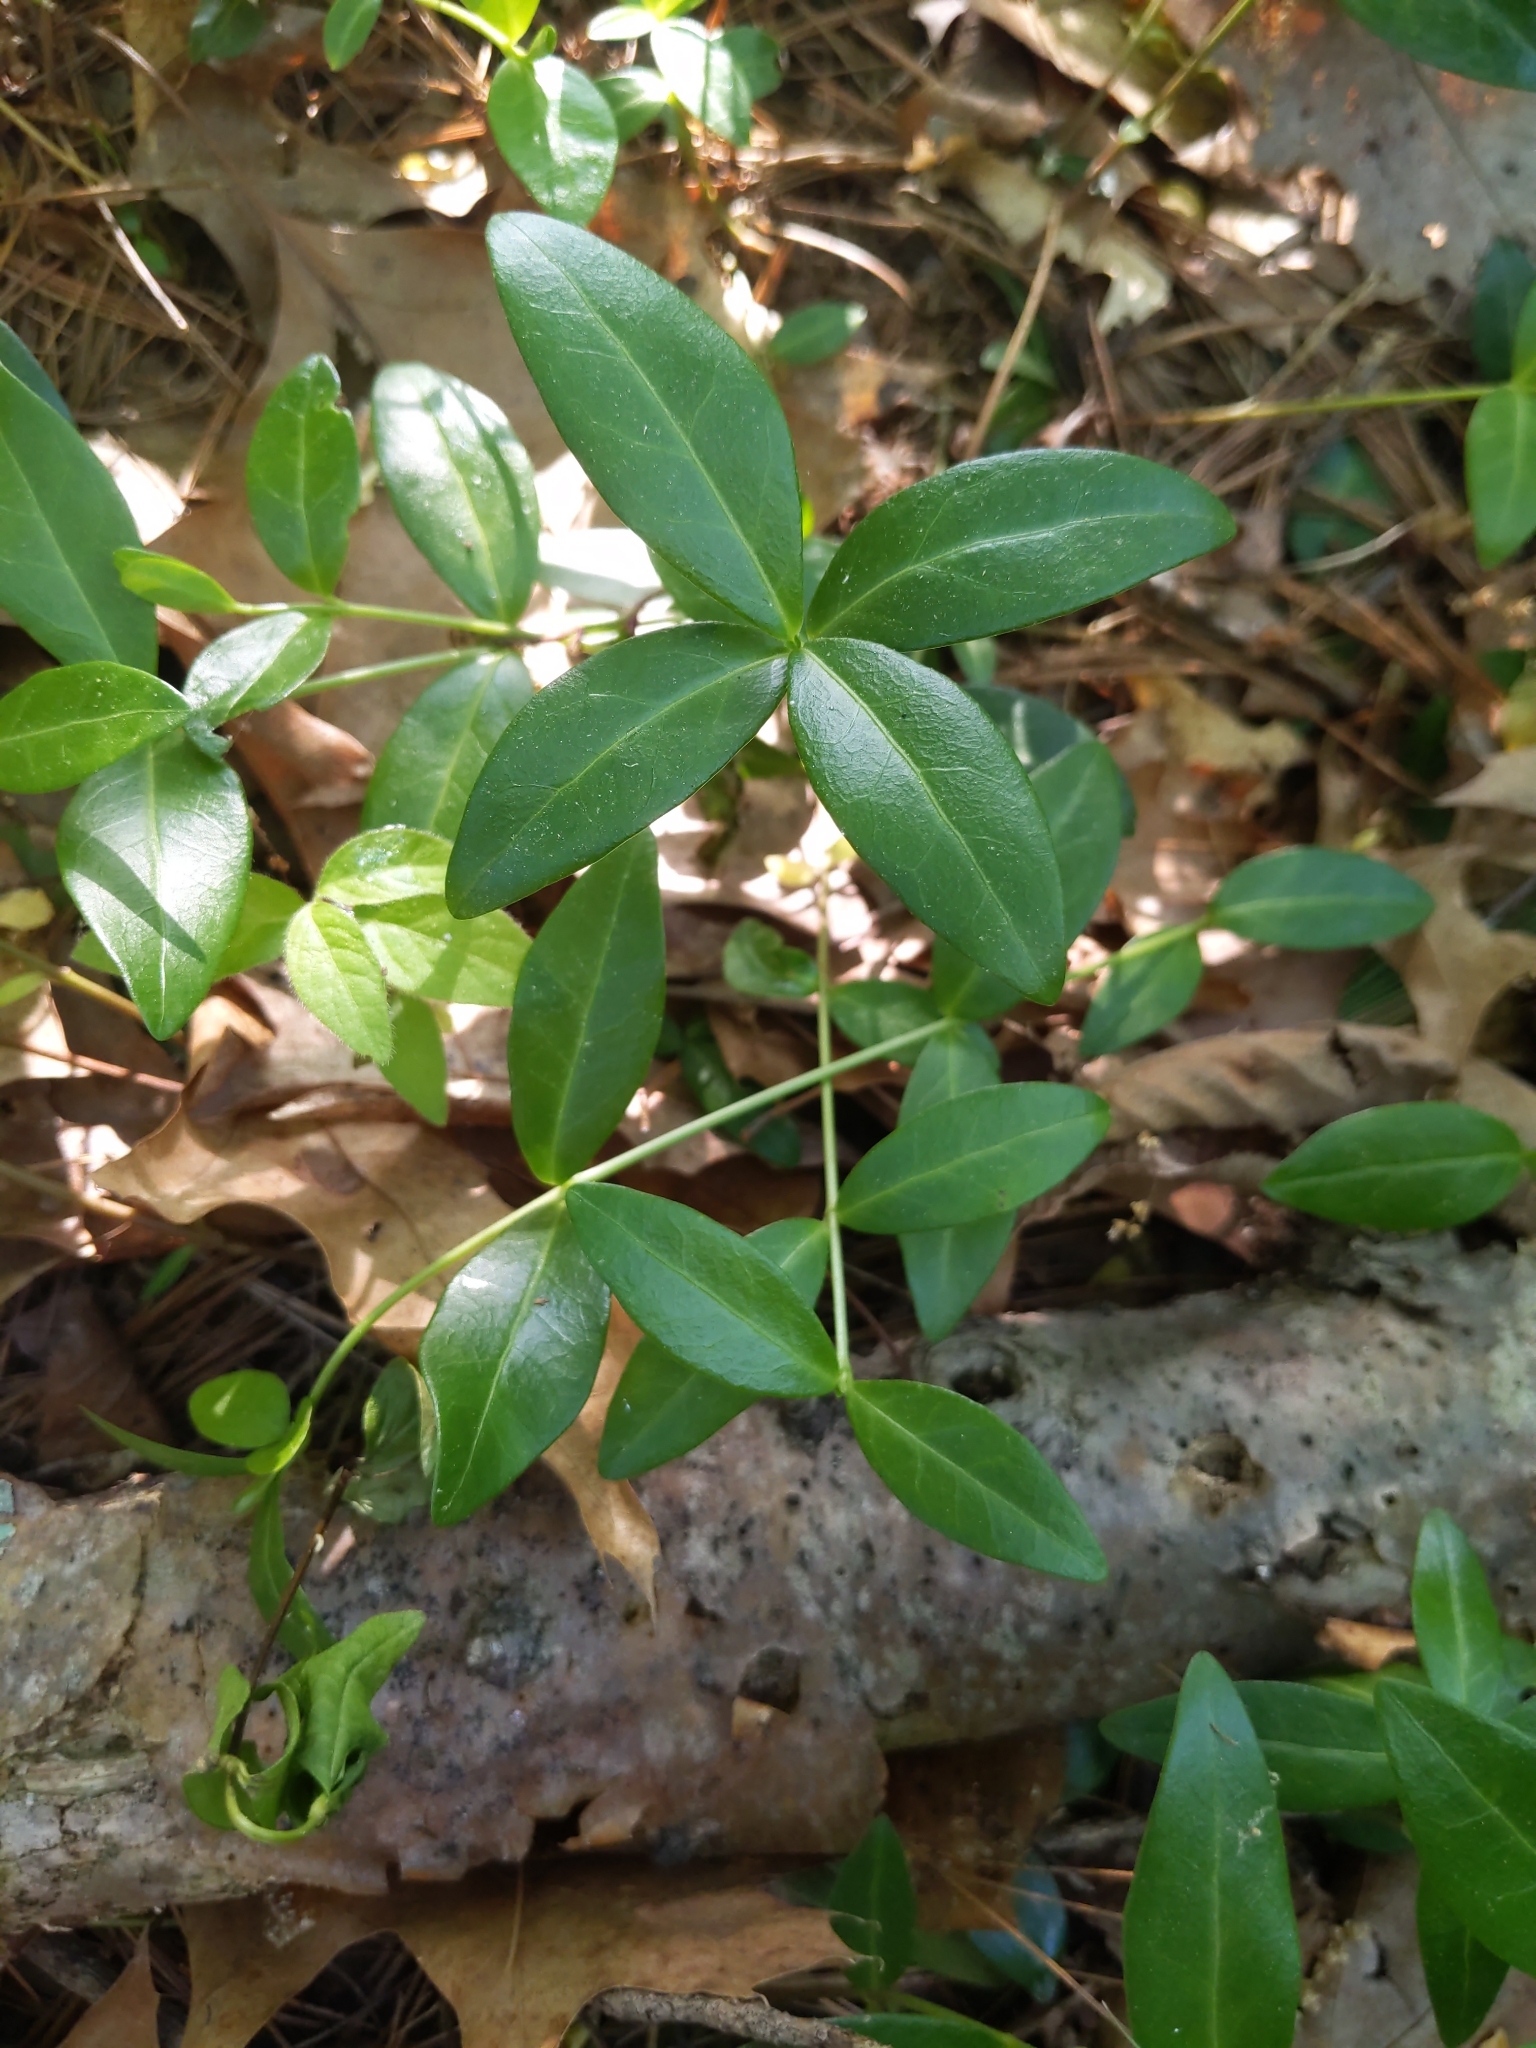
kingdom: Plantae
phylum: Tracheophyta
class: Magnoliopsida
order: Gentianales
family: Apocynaceae
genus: Vinca
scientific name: Vinca minor
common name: Lesser periwinkle
